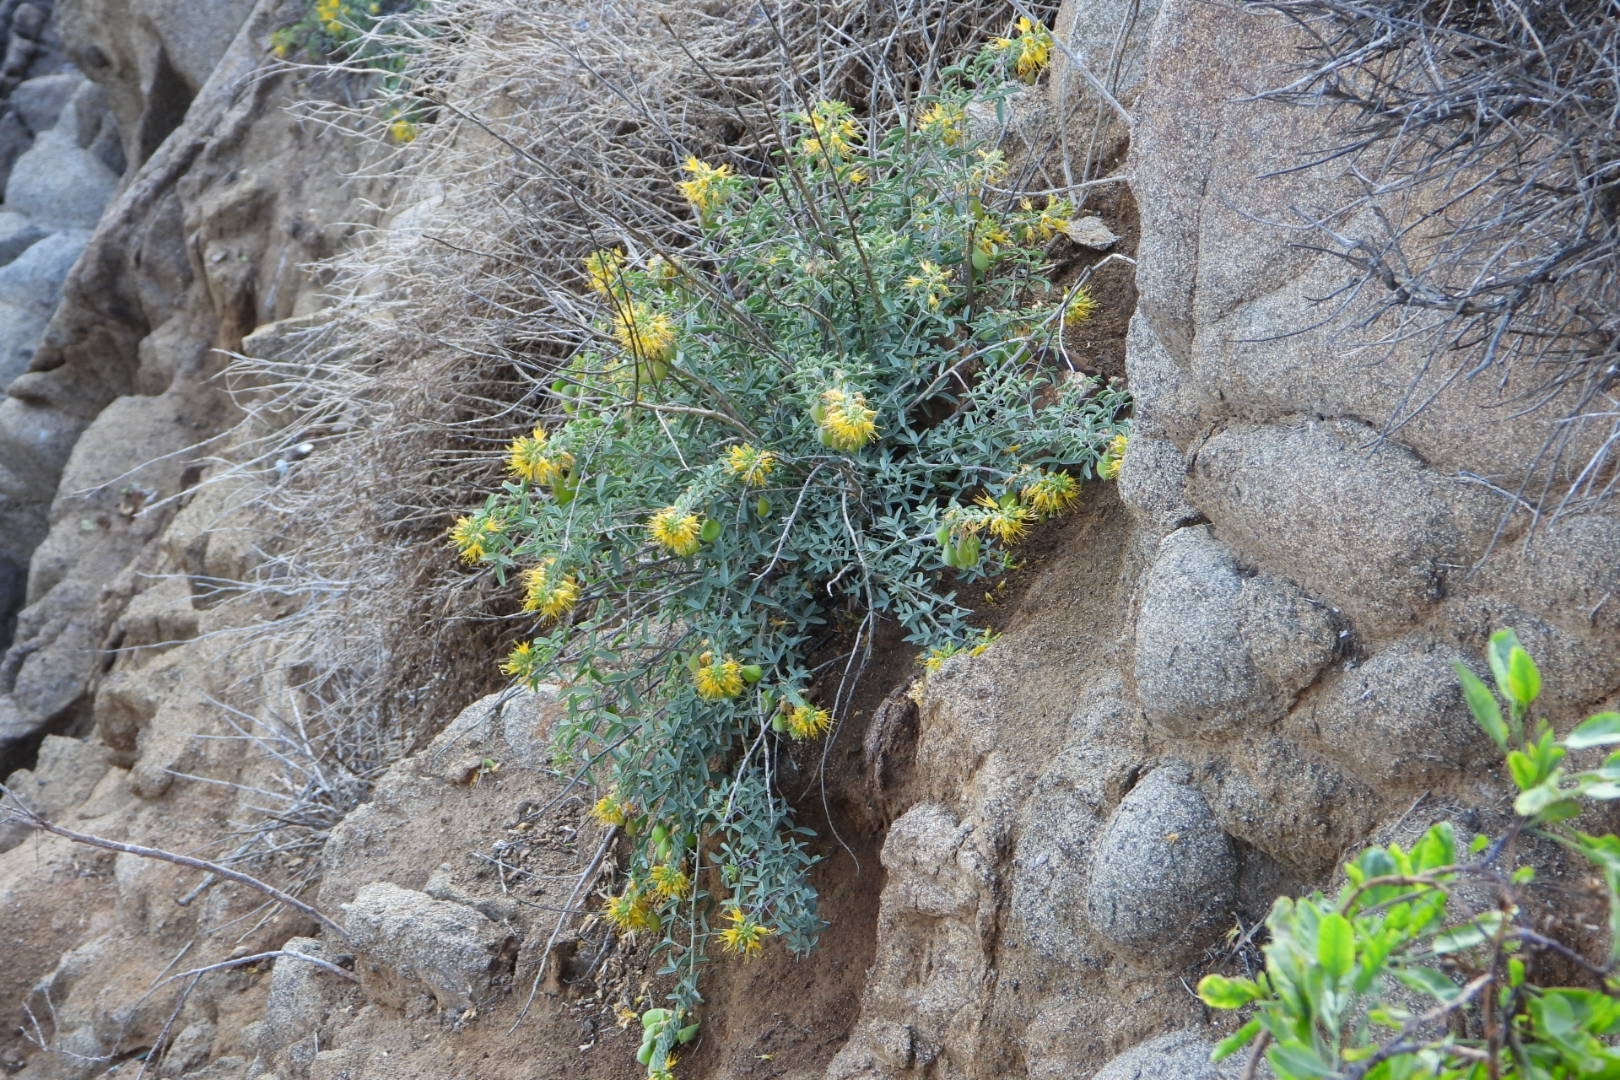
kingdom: Plantae
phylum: Tracheophyta
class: Magnoliopsida
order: Brassicales
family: Cleomaceae
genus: Cleomella
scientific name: Cleomella arborea
